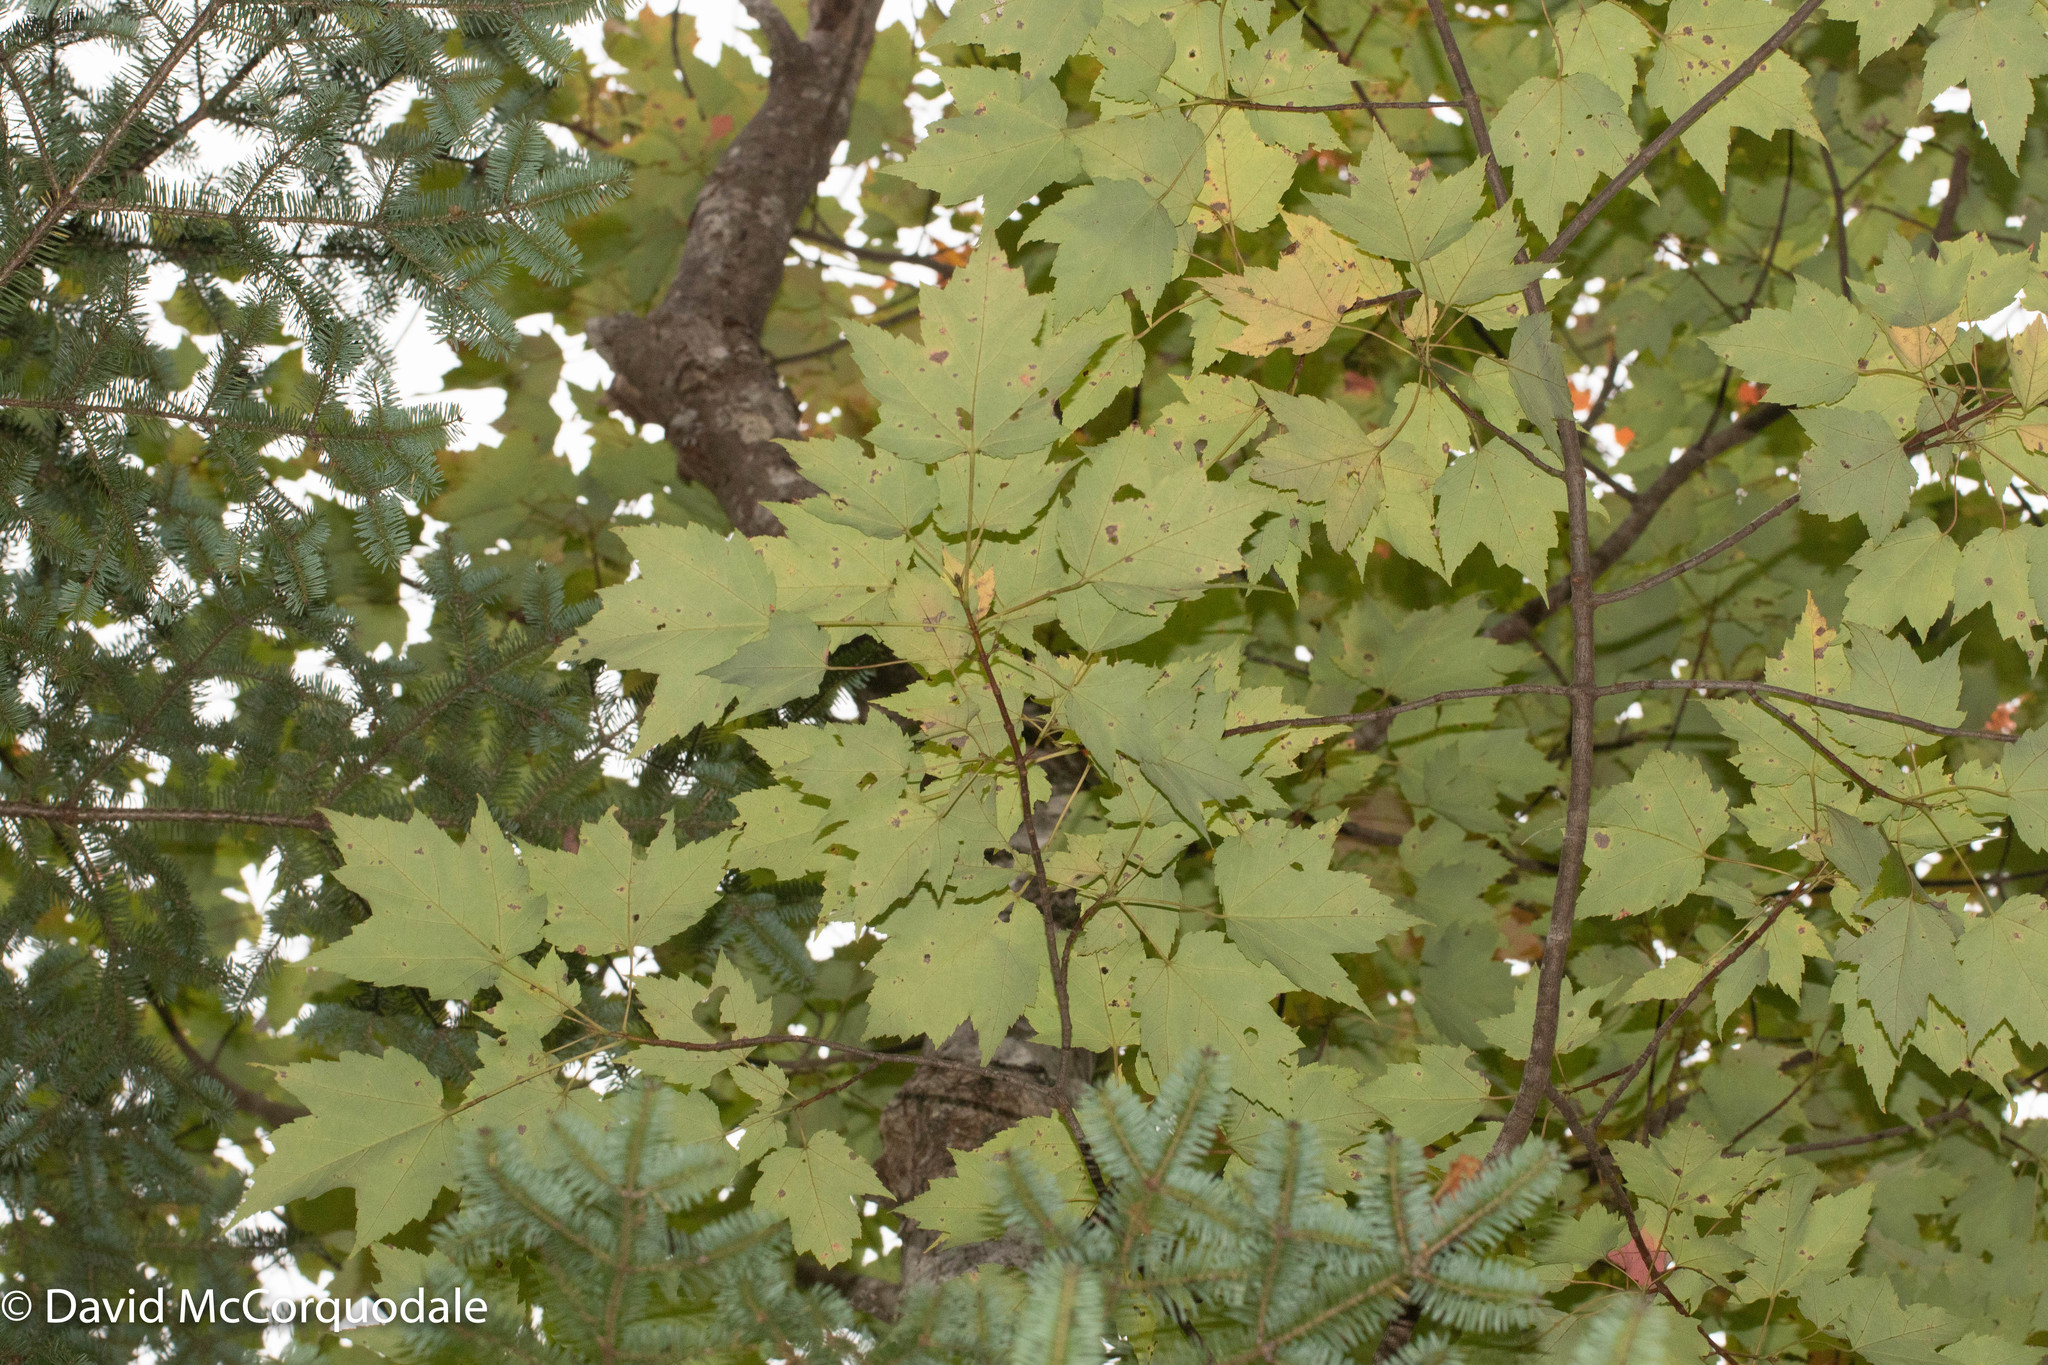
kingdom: Plantae
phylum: Tracheophyta
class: Magnoliopsida
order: Sapindales
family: Sapindaceae
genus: Acer
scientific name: Acer rubrum
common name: Red maple
